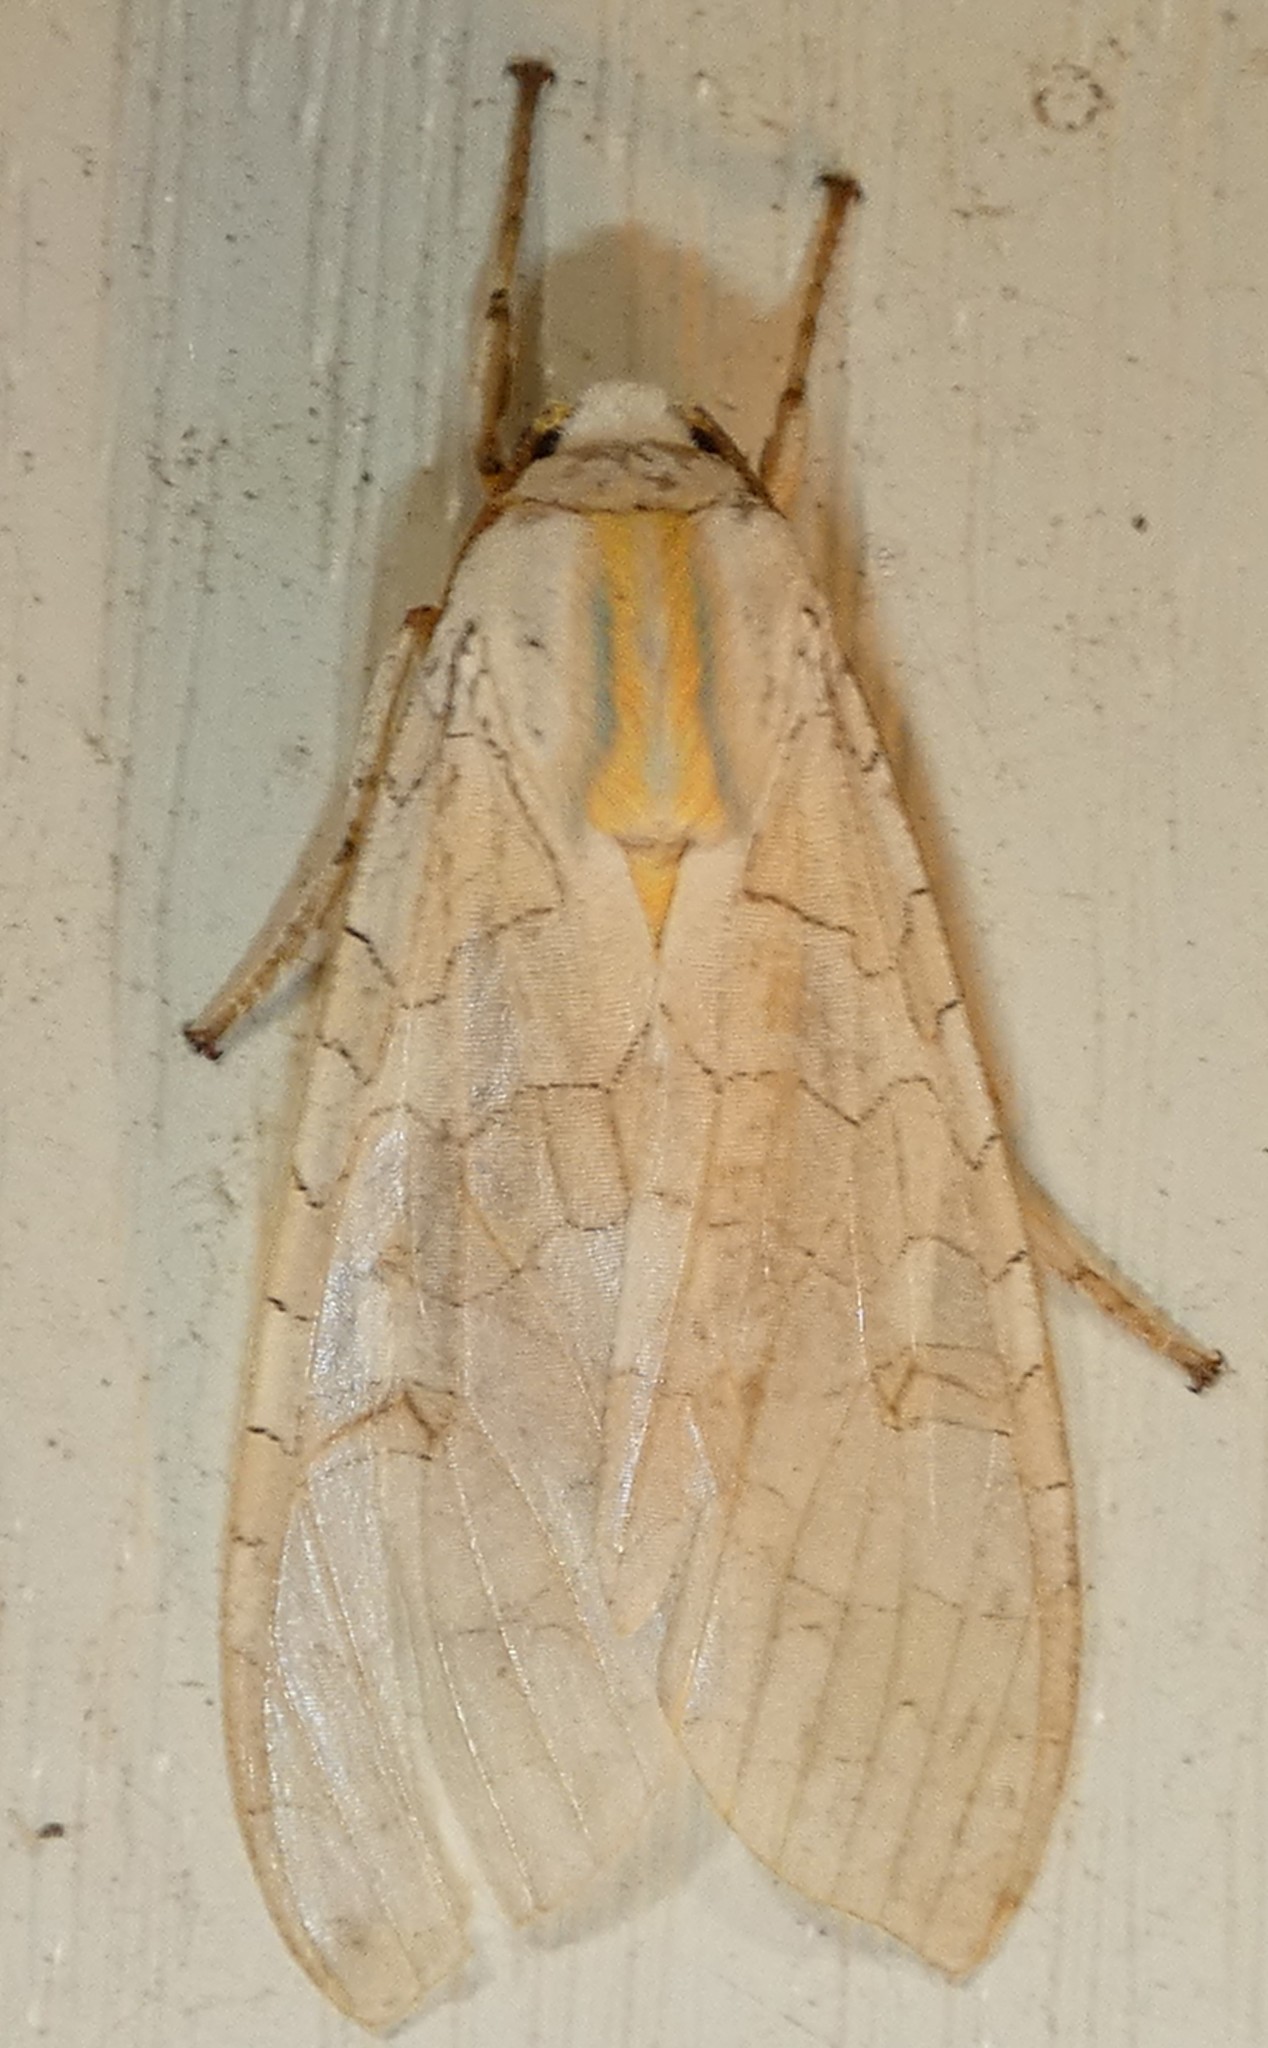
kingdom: Animalia
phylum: Arthropoda
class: Insecta
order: Lepidoptera
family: Erebidae
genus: Halysidota
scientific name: Halysidota
